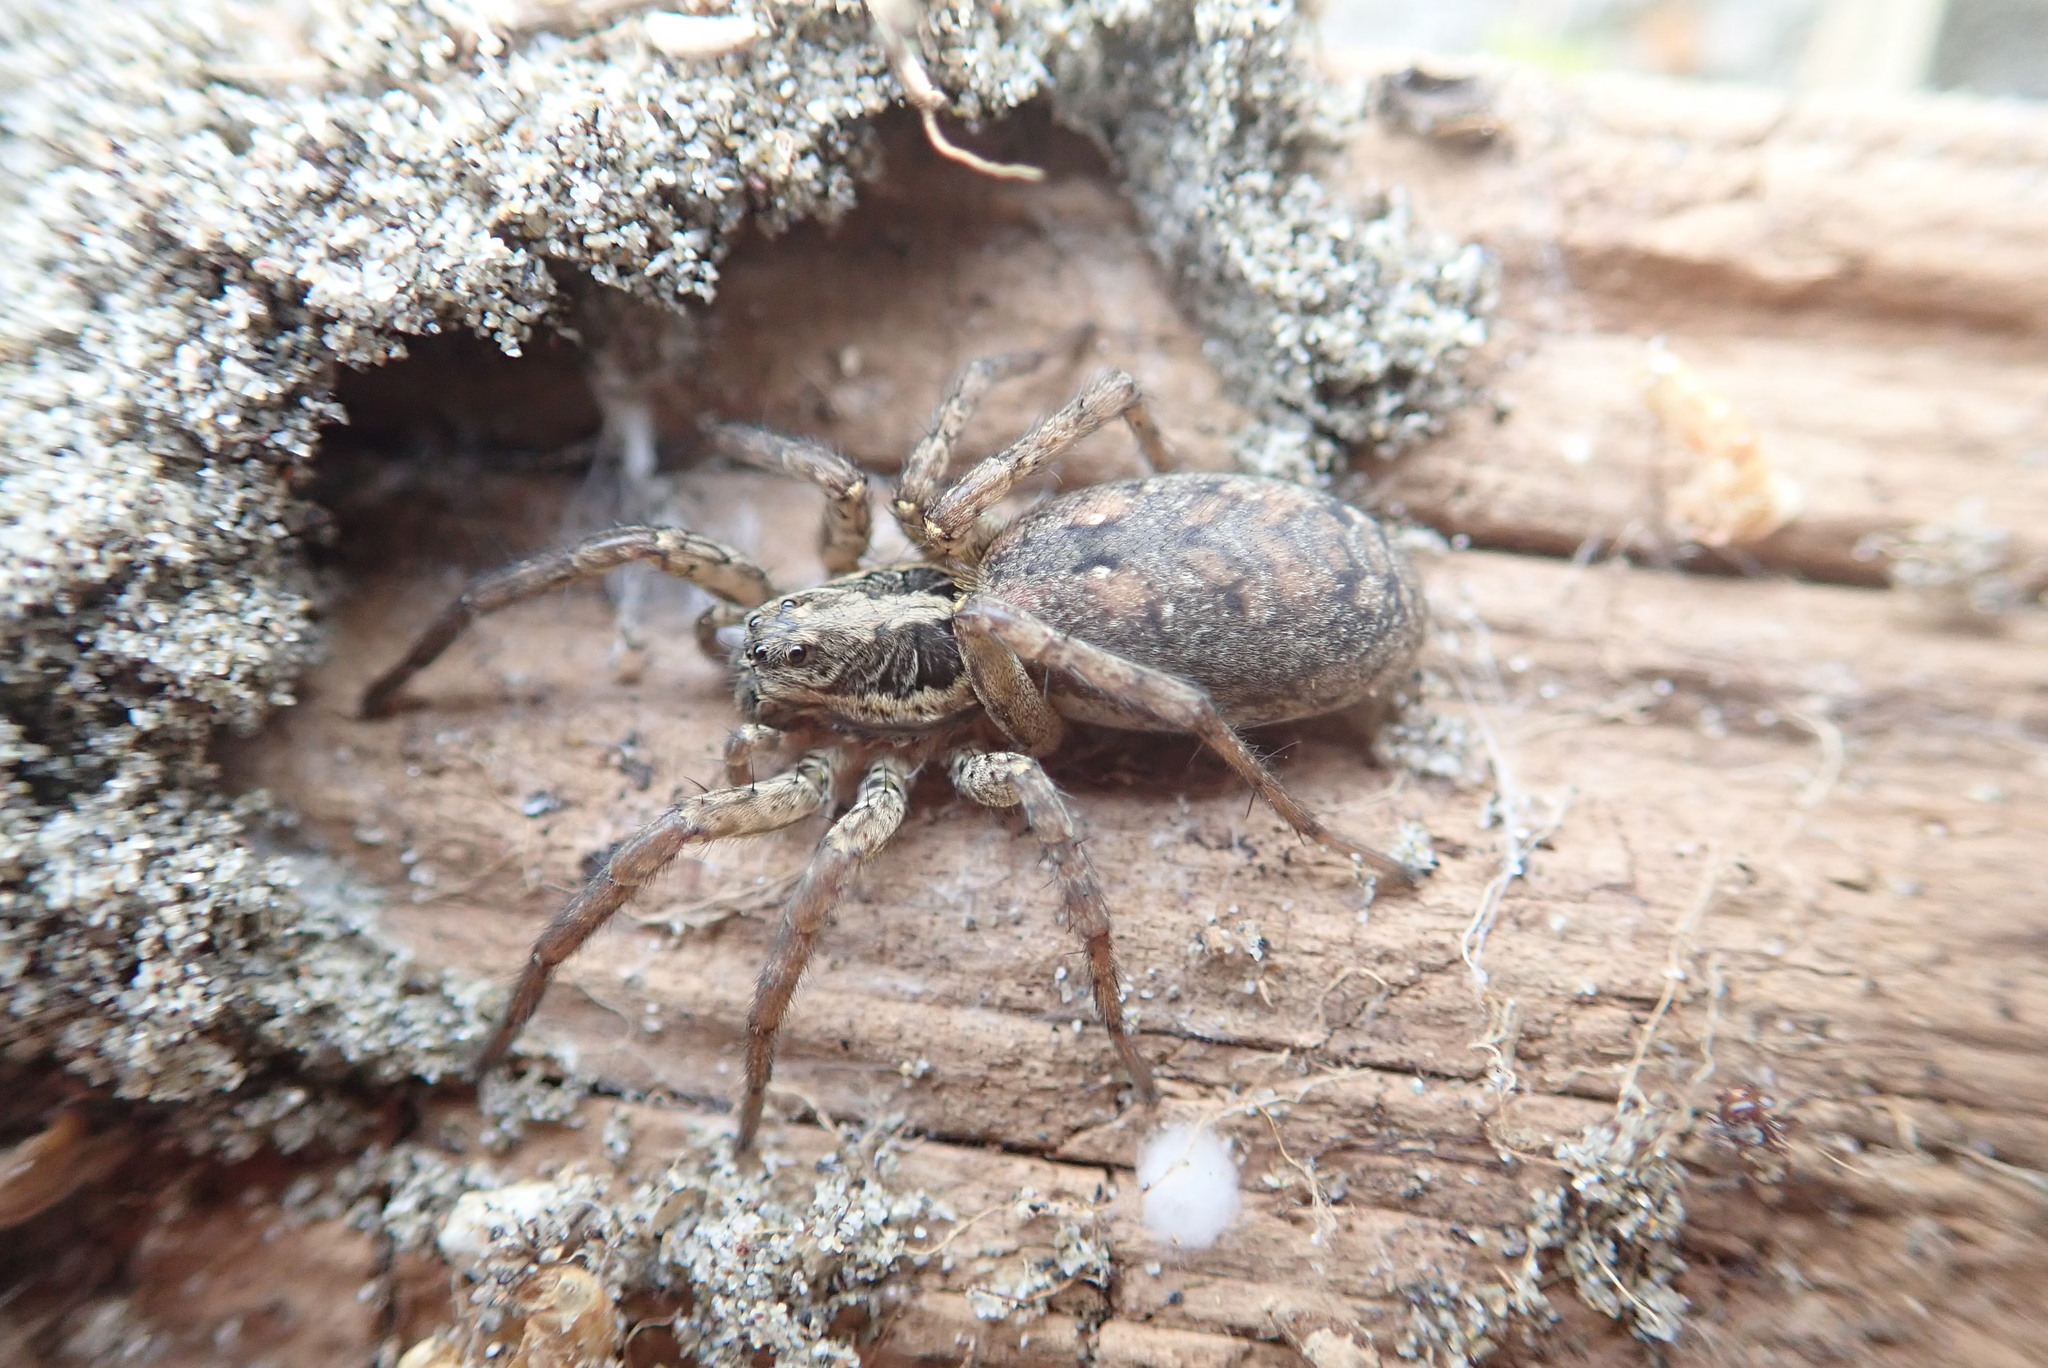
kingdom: Animalia
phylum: Arthropoda
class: Arachnida
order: Araneae
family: Lycosidae
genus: Hogna
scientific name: Hogna crispipes
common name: Wolf spider
